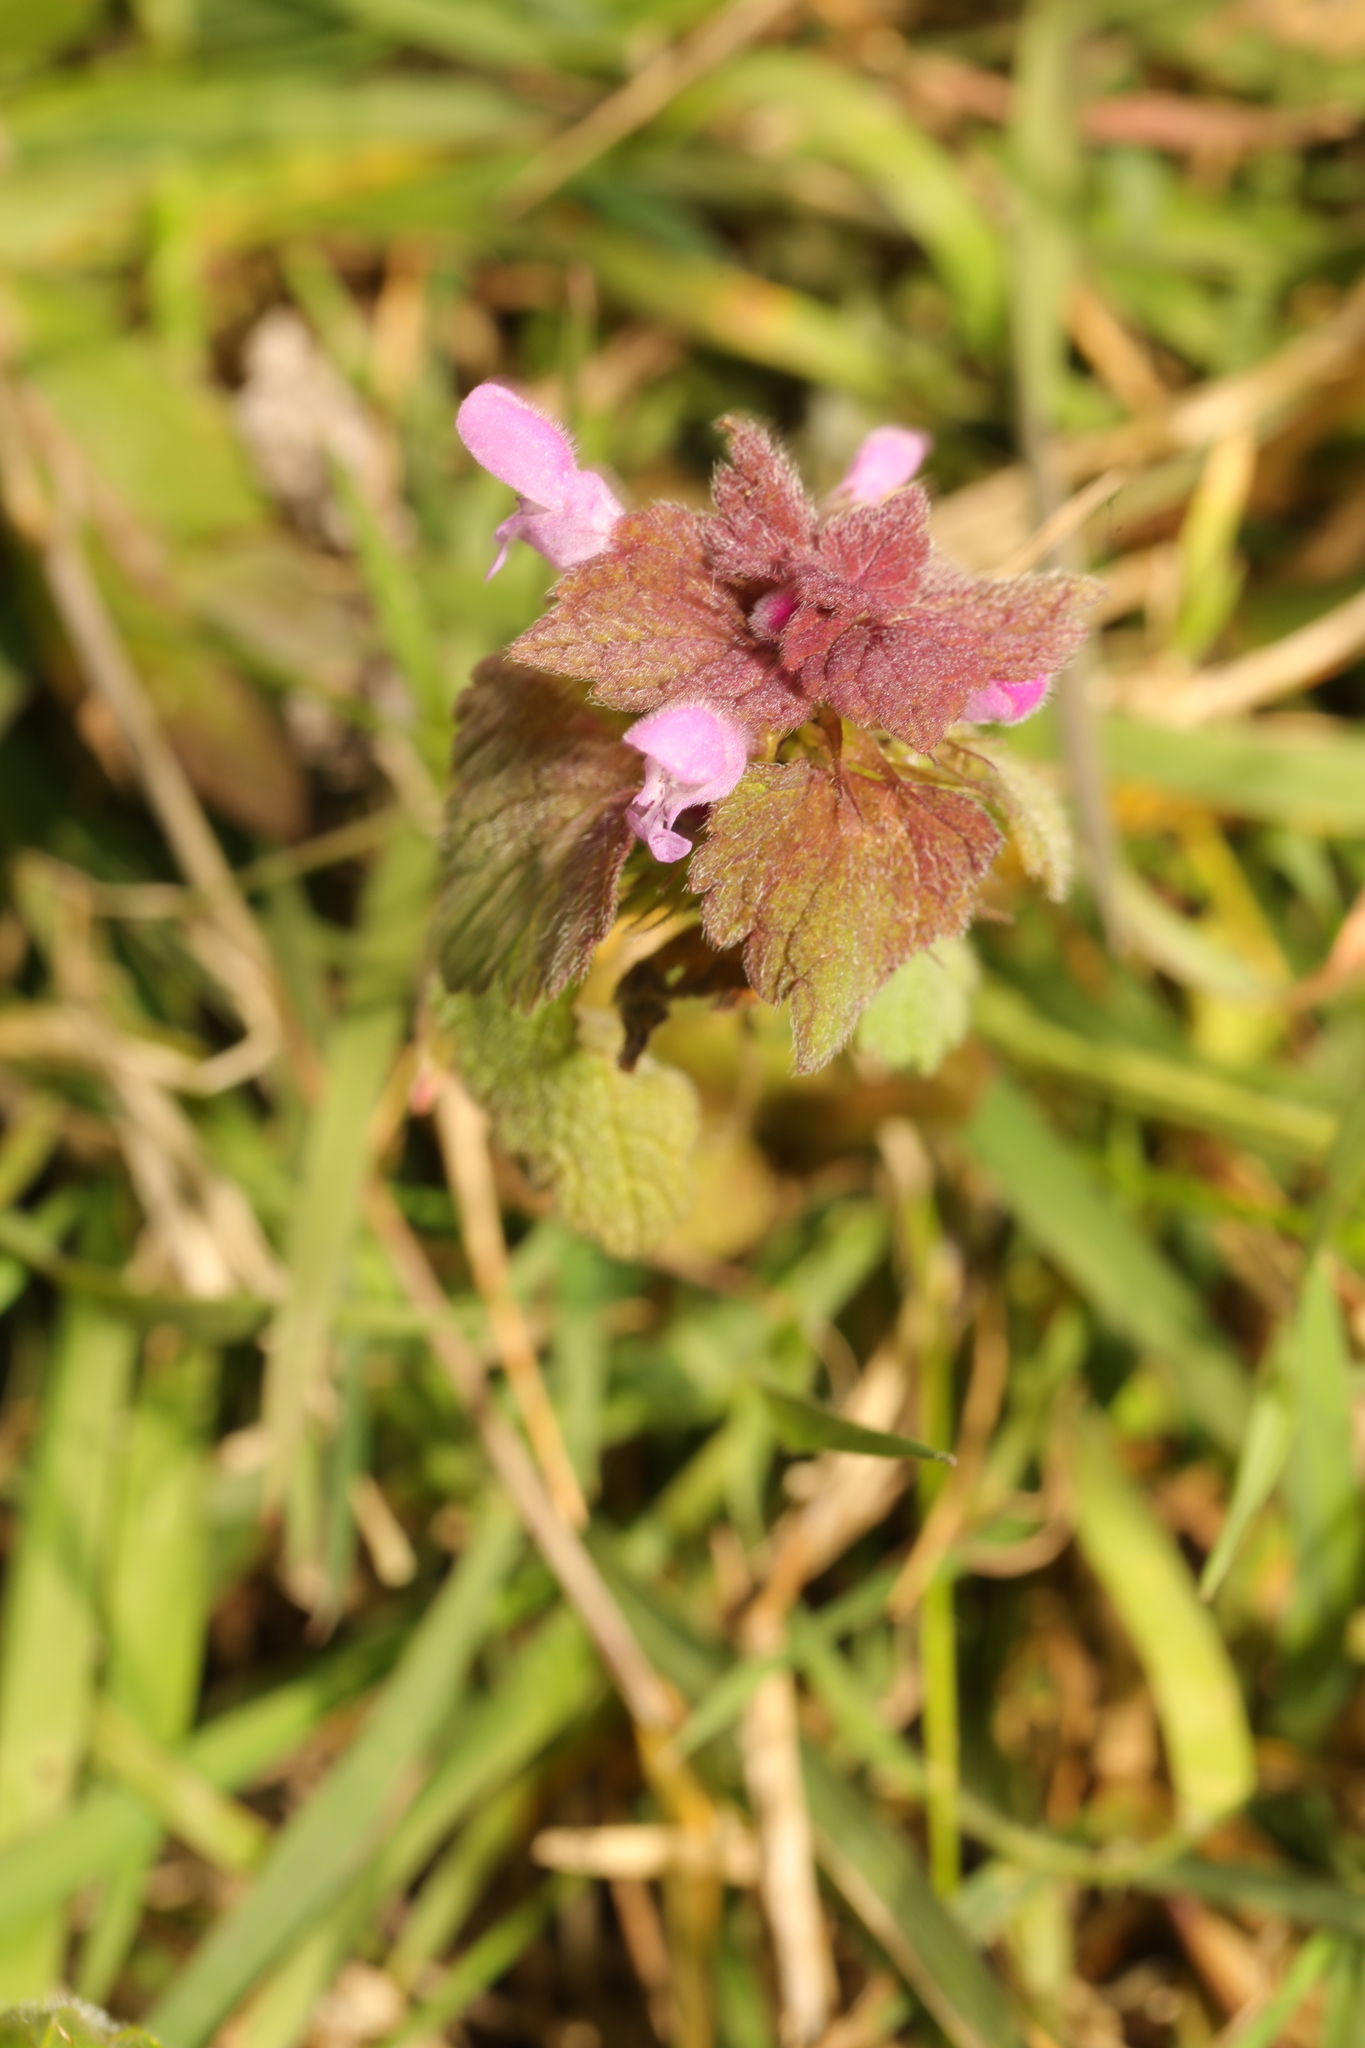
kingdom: Plantae
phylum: Tracheophyta
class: Magnoliopsida
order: Lamiales
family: Lamiaceae
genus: Lamium
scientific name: Lamium purpureum
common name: Red dead-nettle
